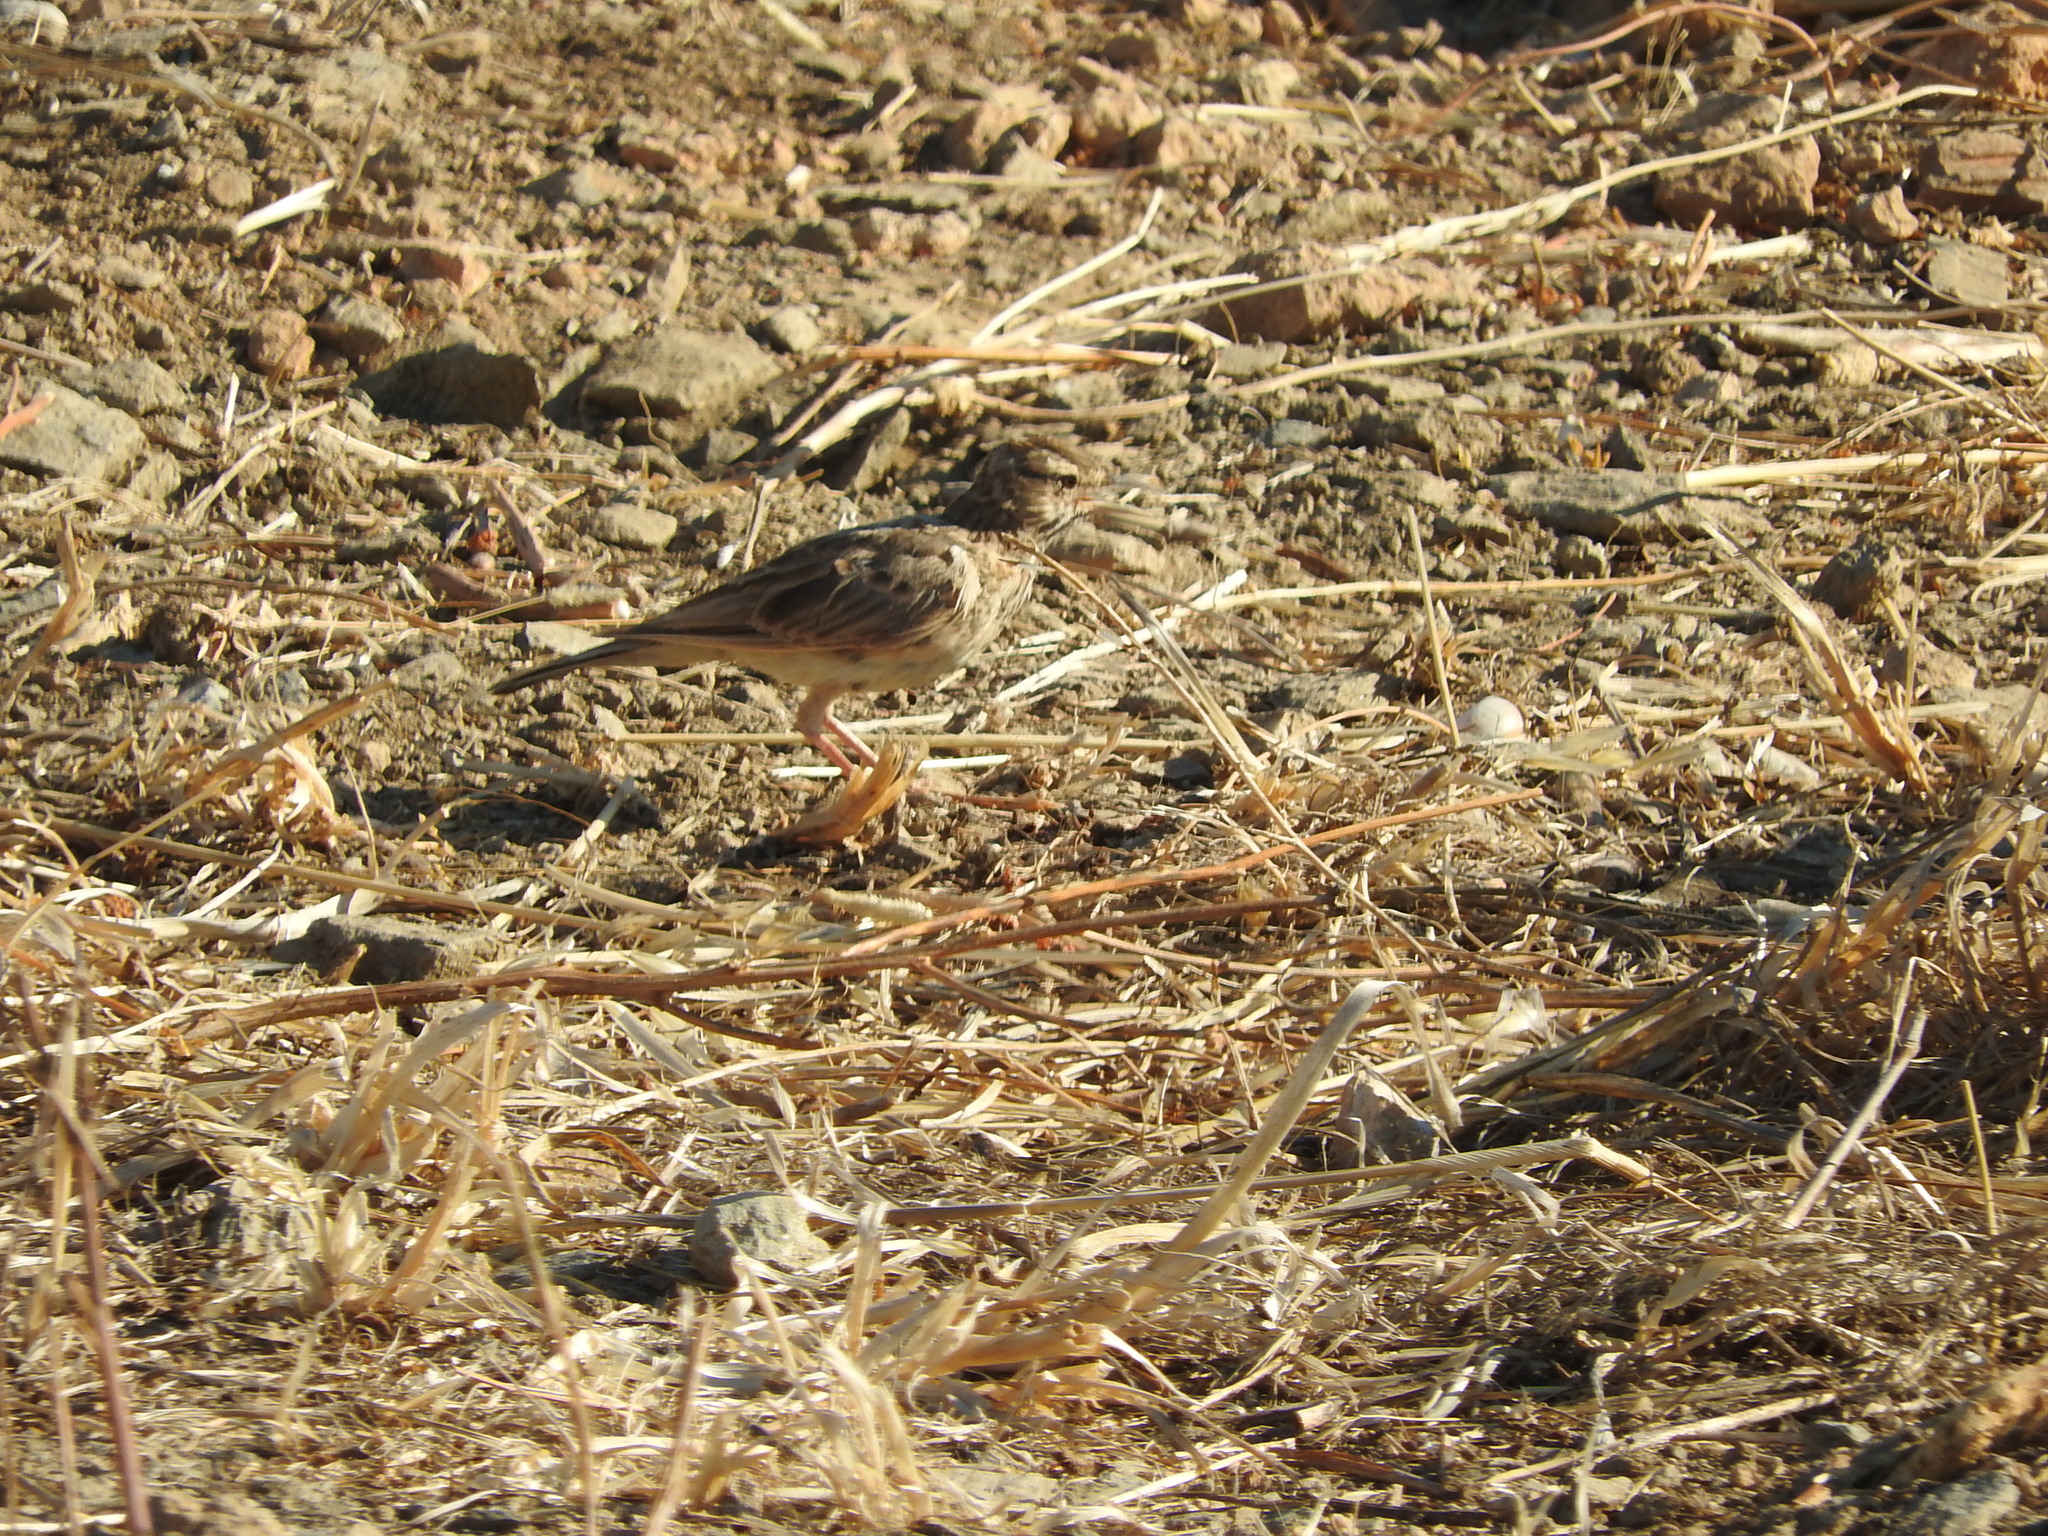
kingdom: Animalia
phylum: Chordata
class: Aves
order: Passeriformes
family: Alaudidae
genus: Galerida
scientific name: Galerida cristata
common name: Crested lark
